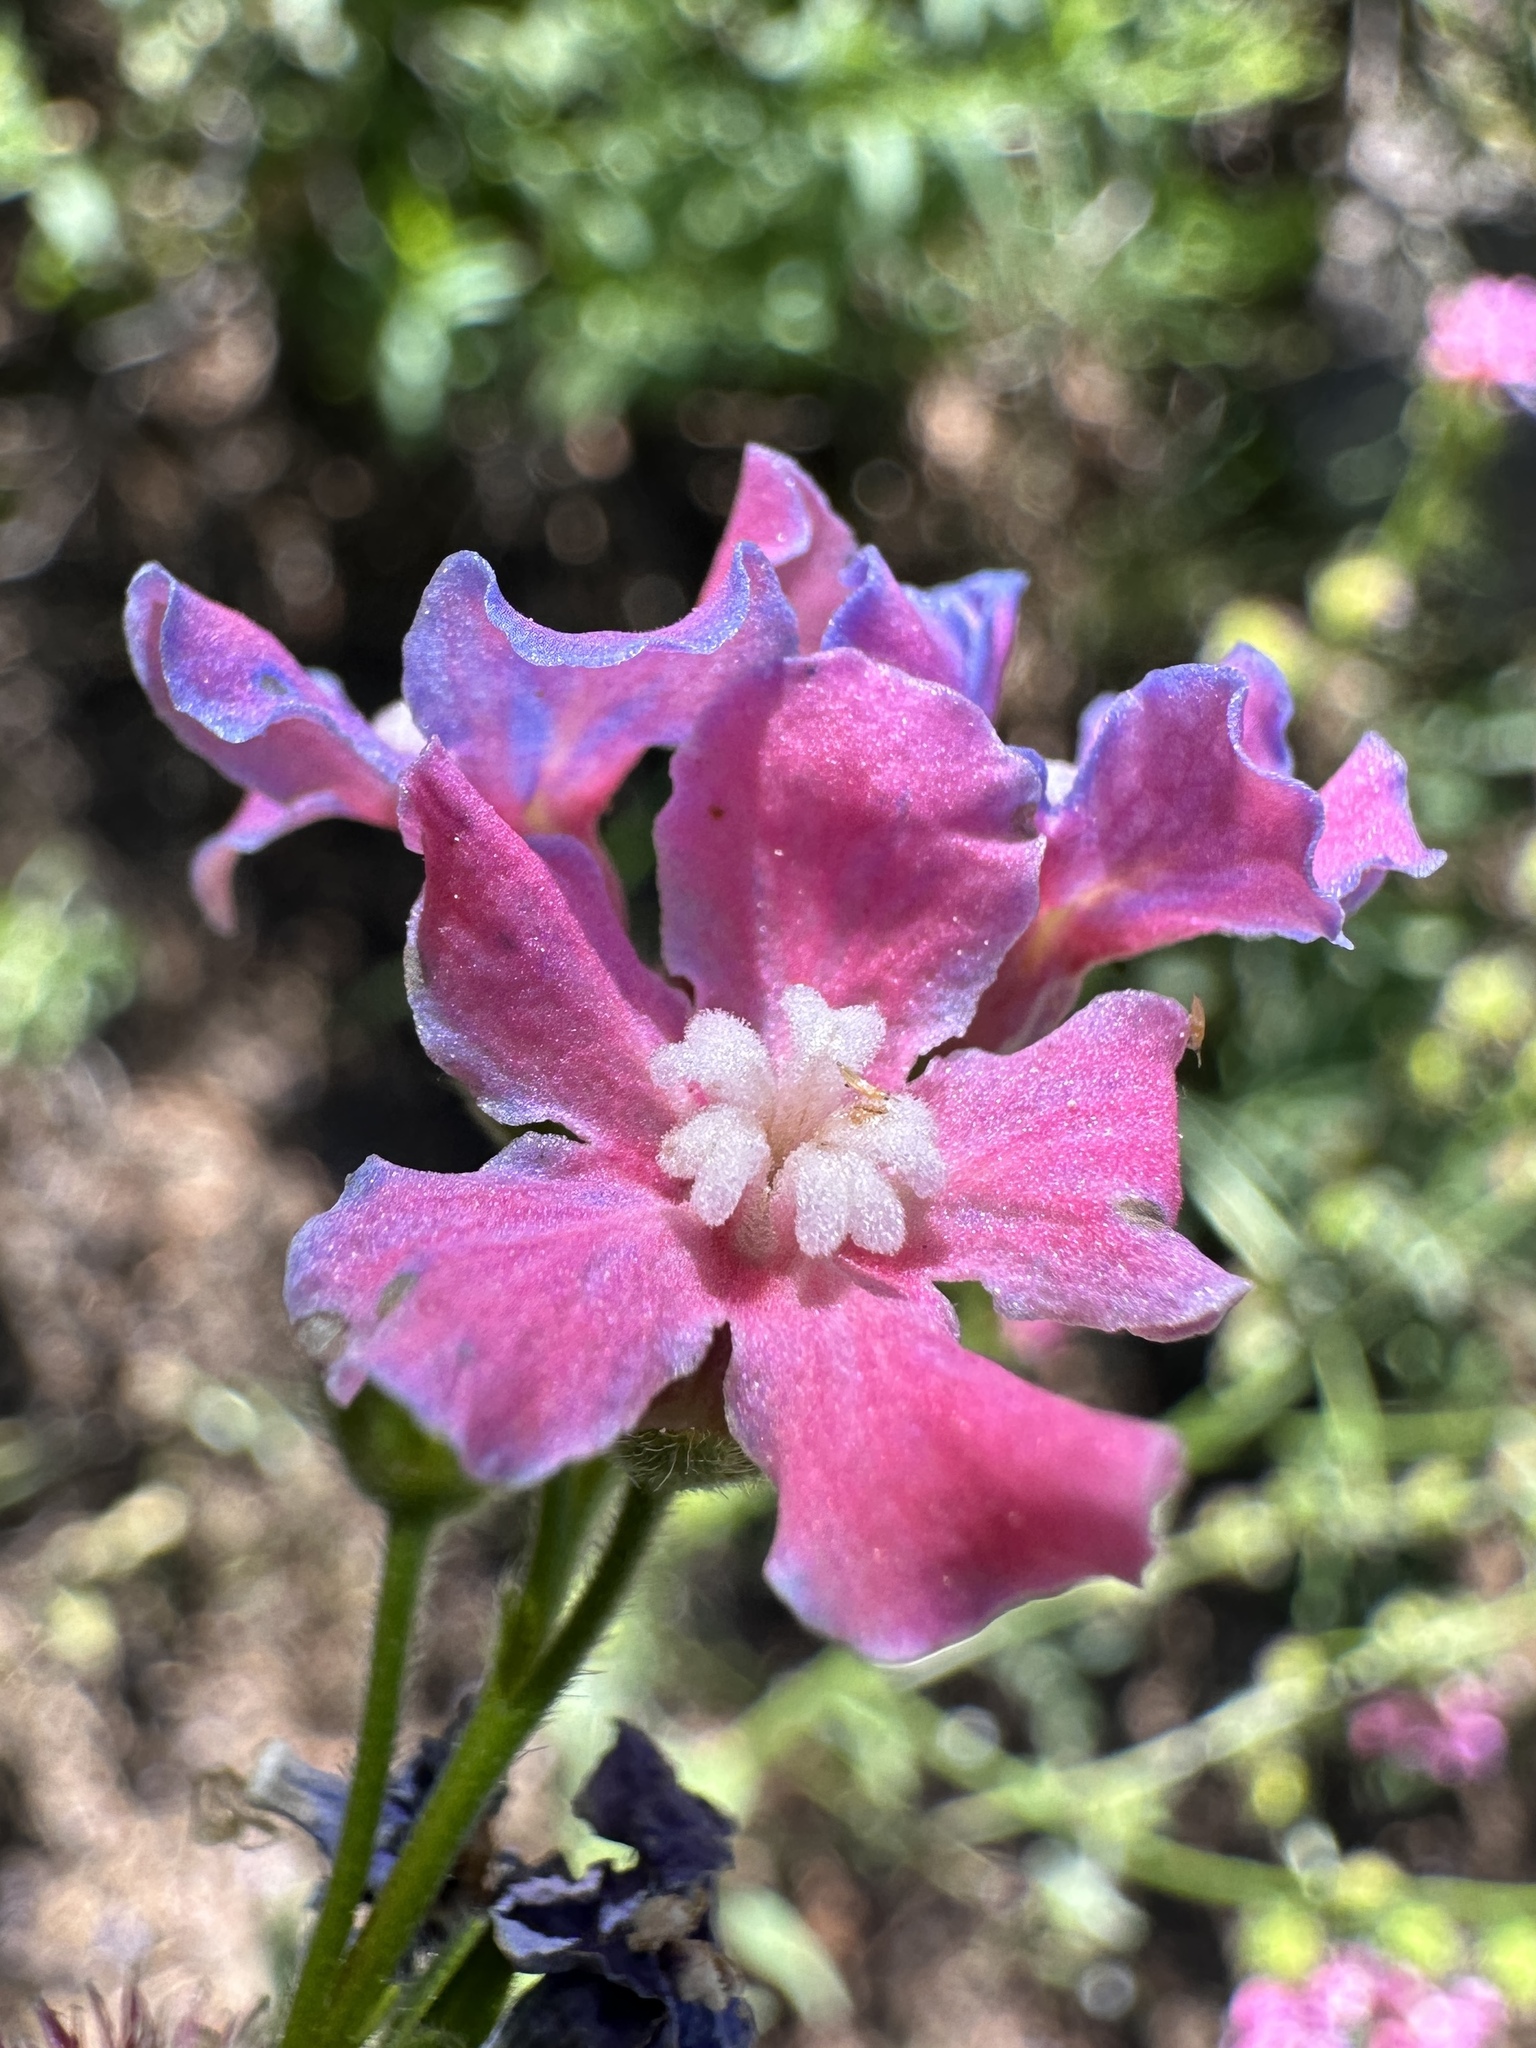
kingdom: Plantae
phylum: Tracheophyta
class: Magnoliopsida
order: Boraginales
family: Boraginaceae
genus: Hackelia
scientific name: Hackelia mundula
